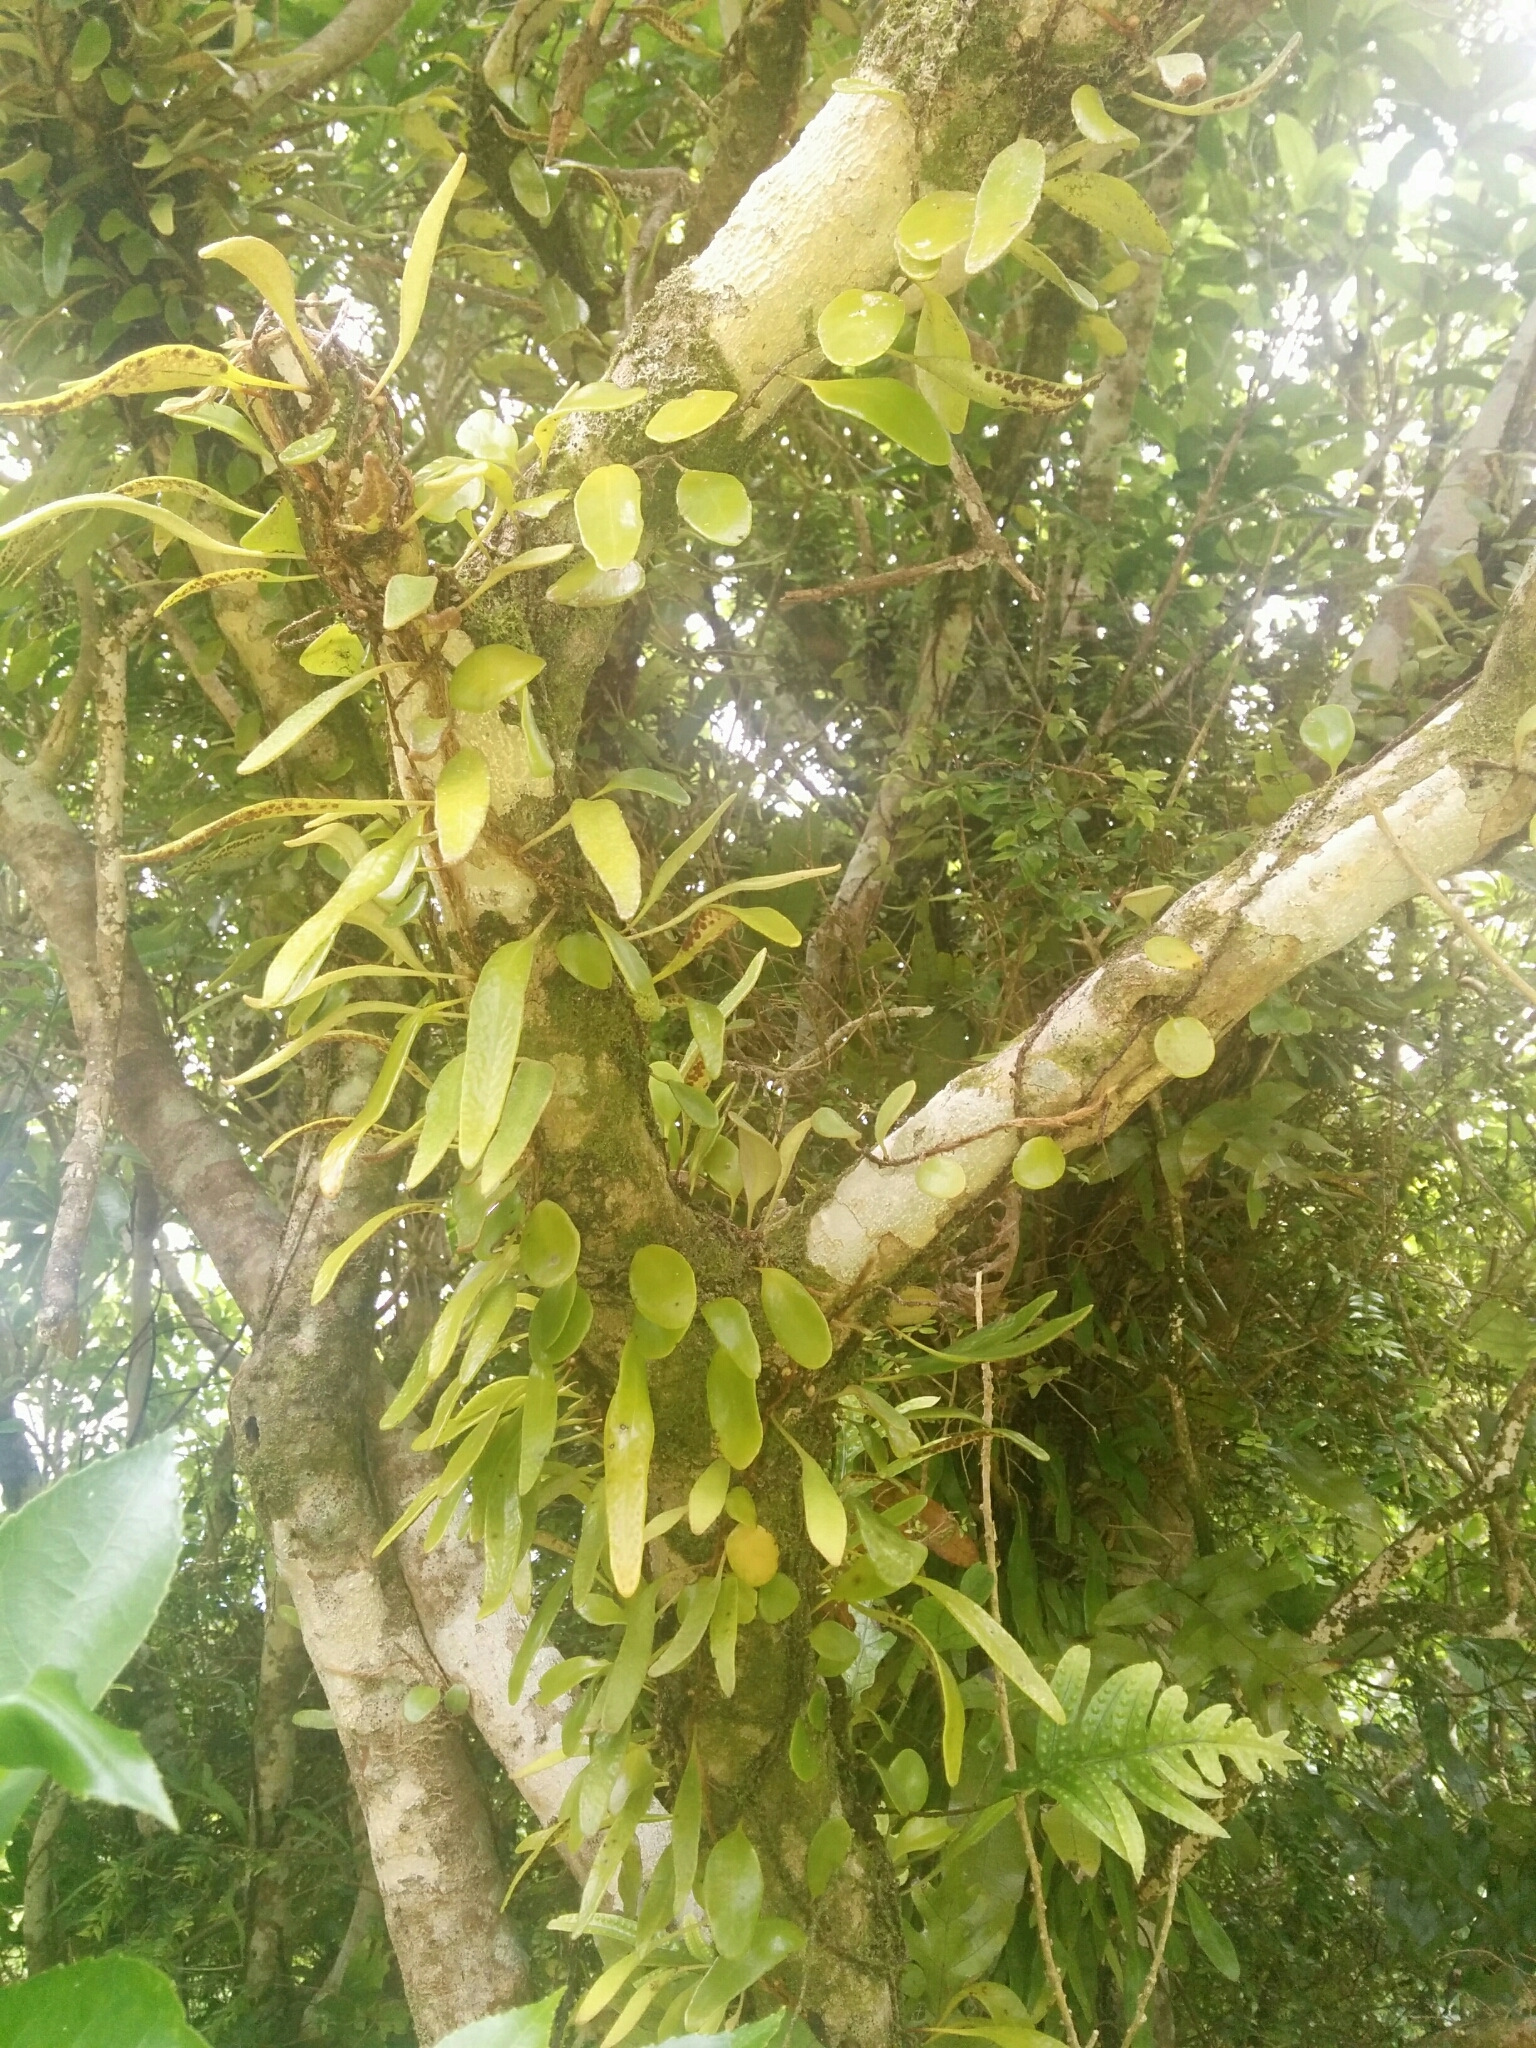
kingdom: Plantae
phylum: Tracheophyta
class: Polypodiopsida
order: Polypodiales
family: Polypodiaceae
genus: Pyrrosia
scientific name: Pyrrosia eleagnifolia
